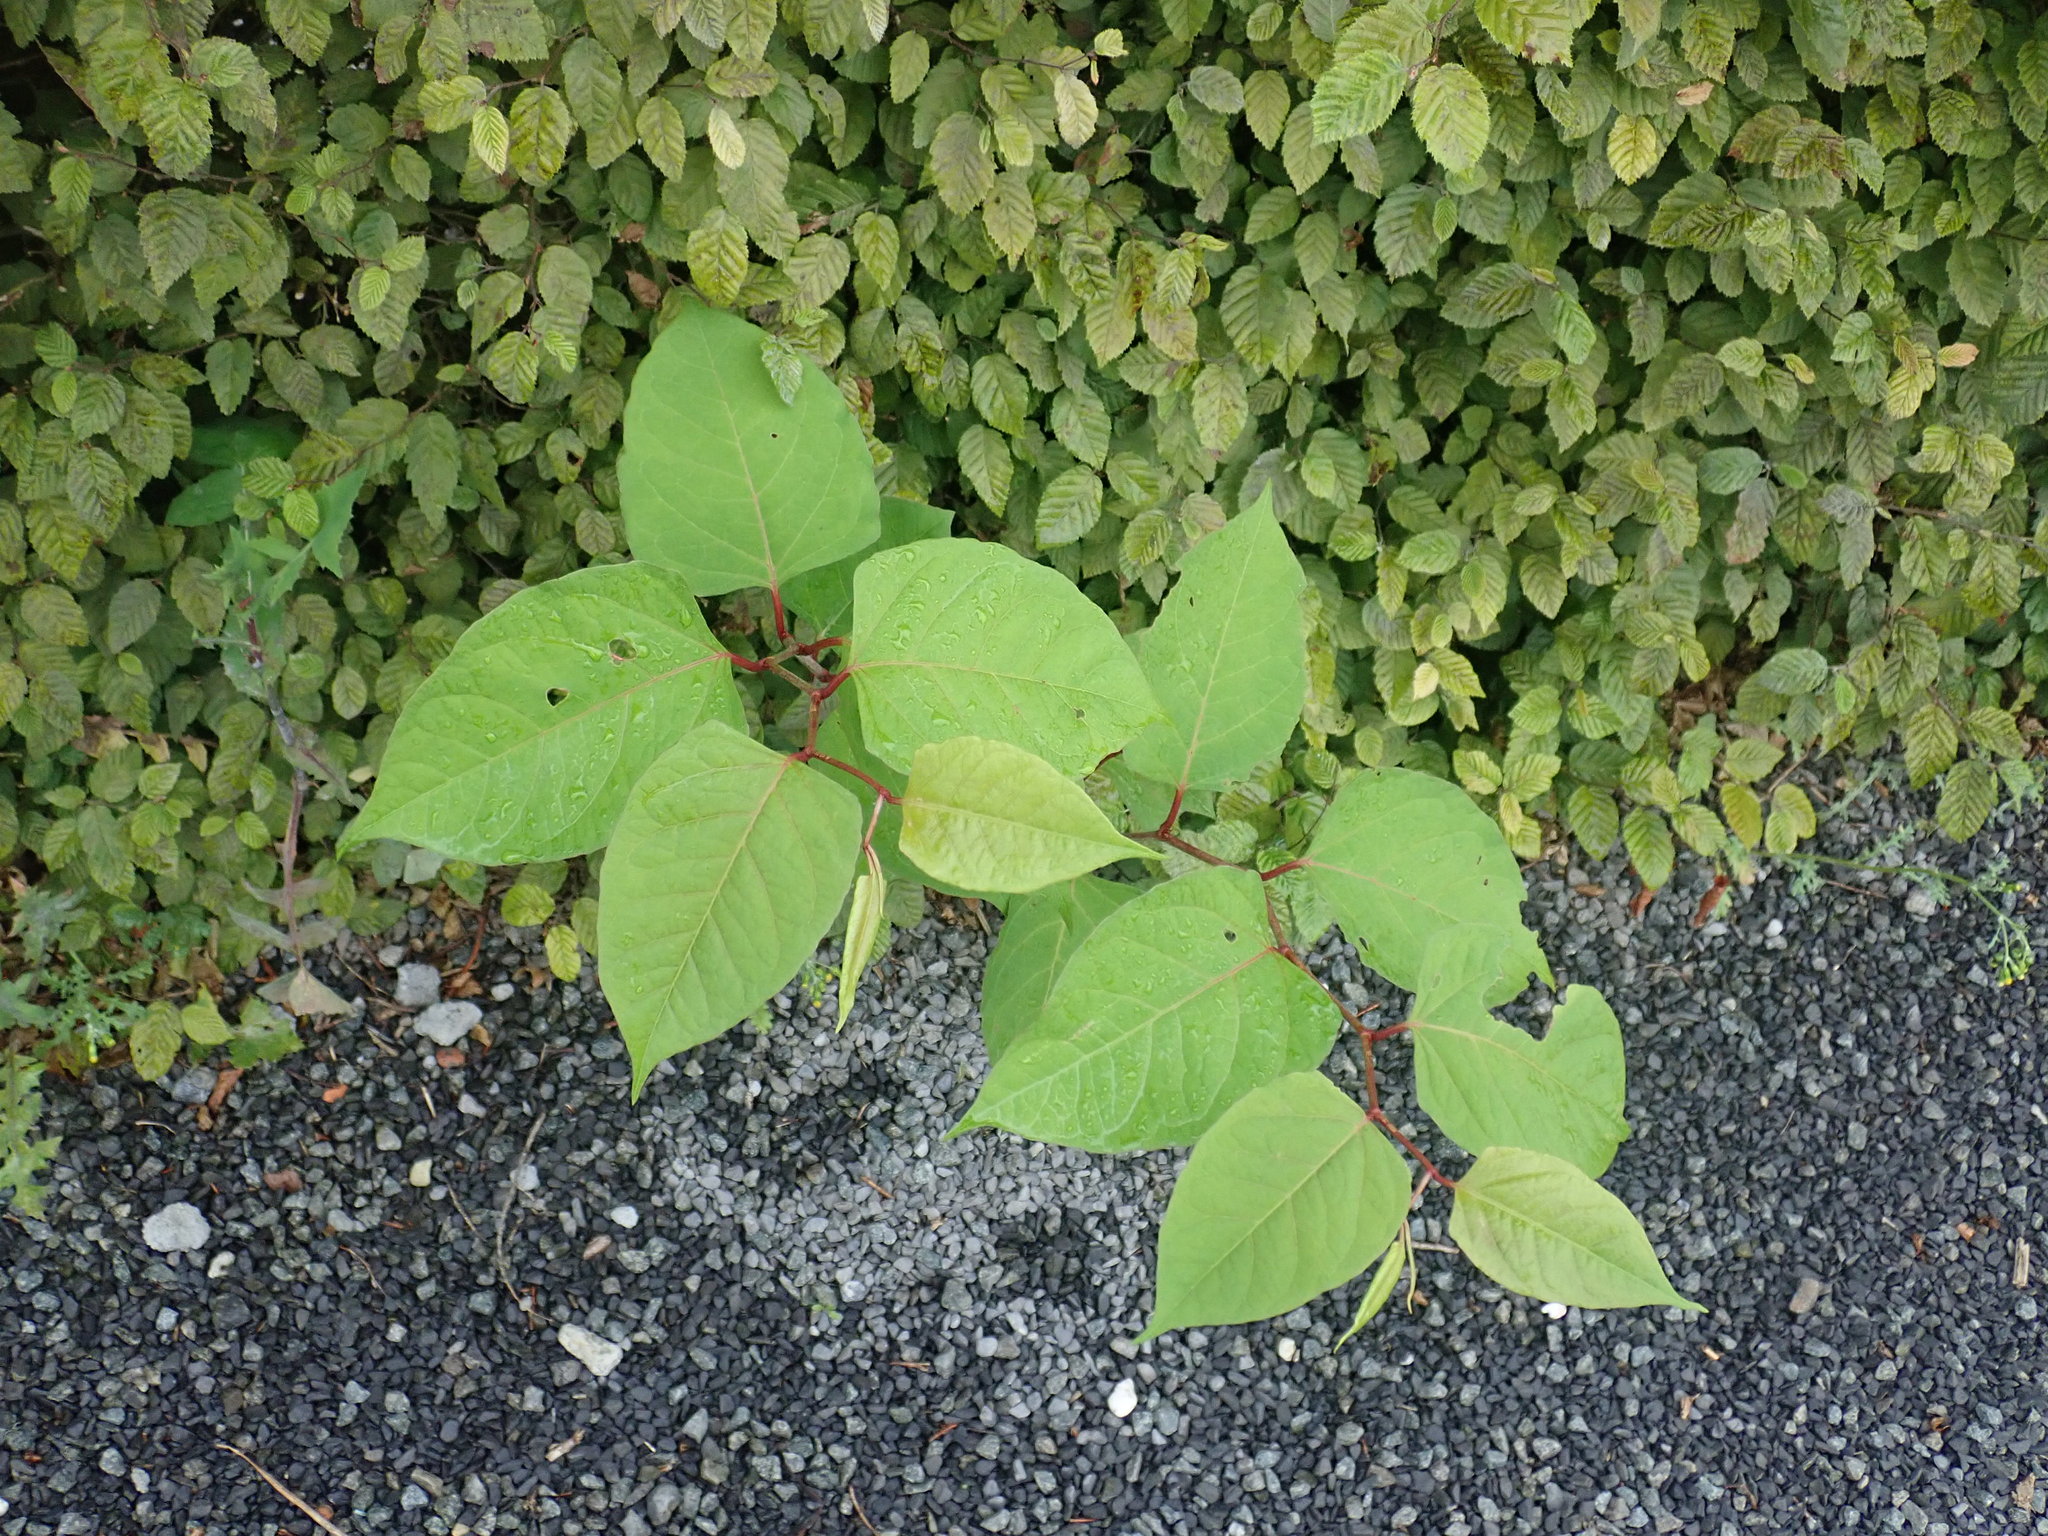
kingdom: Plantae
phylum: Tracheophyta
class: Magnoliopsida
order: Caryophyllales
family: Polygonaceae
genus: Reynoutria
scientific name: Reynoutria japonica
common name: Japanese knotweed
